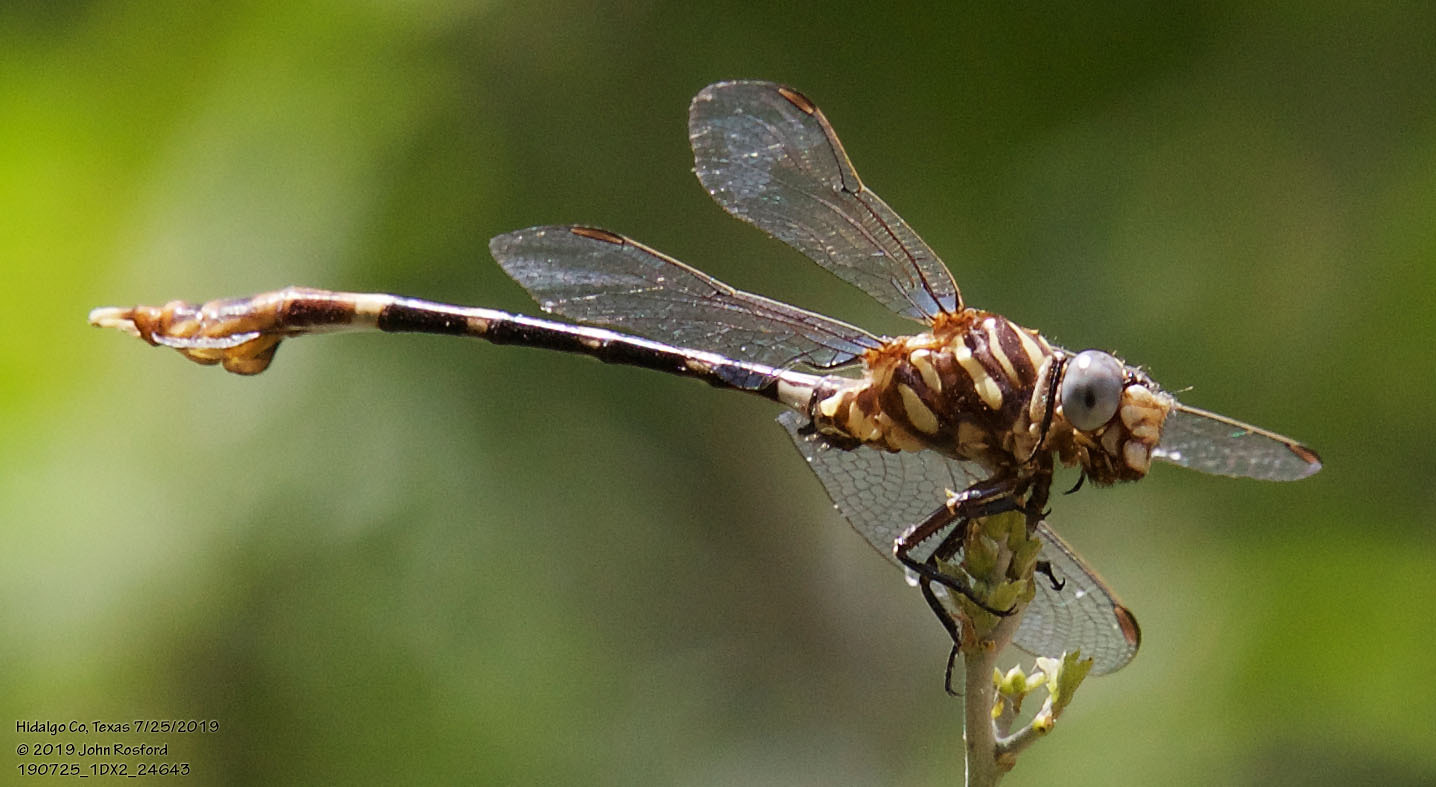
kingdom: Animalia
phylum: Arthropoda
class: Insecta
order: Odonata
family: Gomphidae
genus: Phyllogomphoides
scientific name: Phyllogomphoides albrighti
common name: Five-striped leaftail
